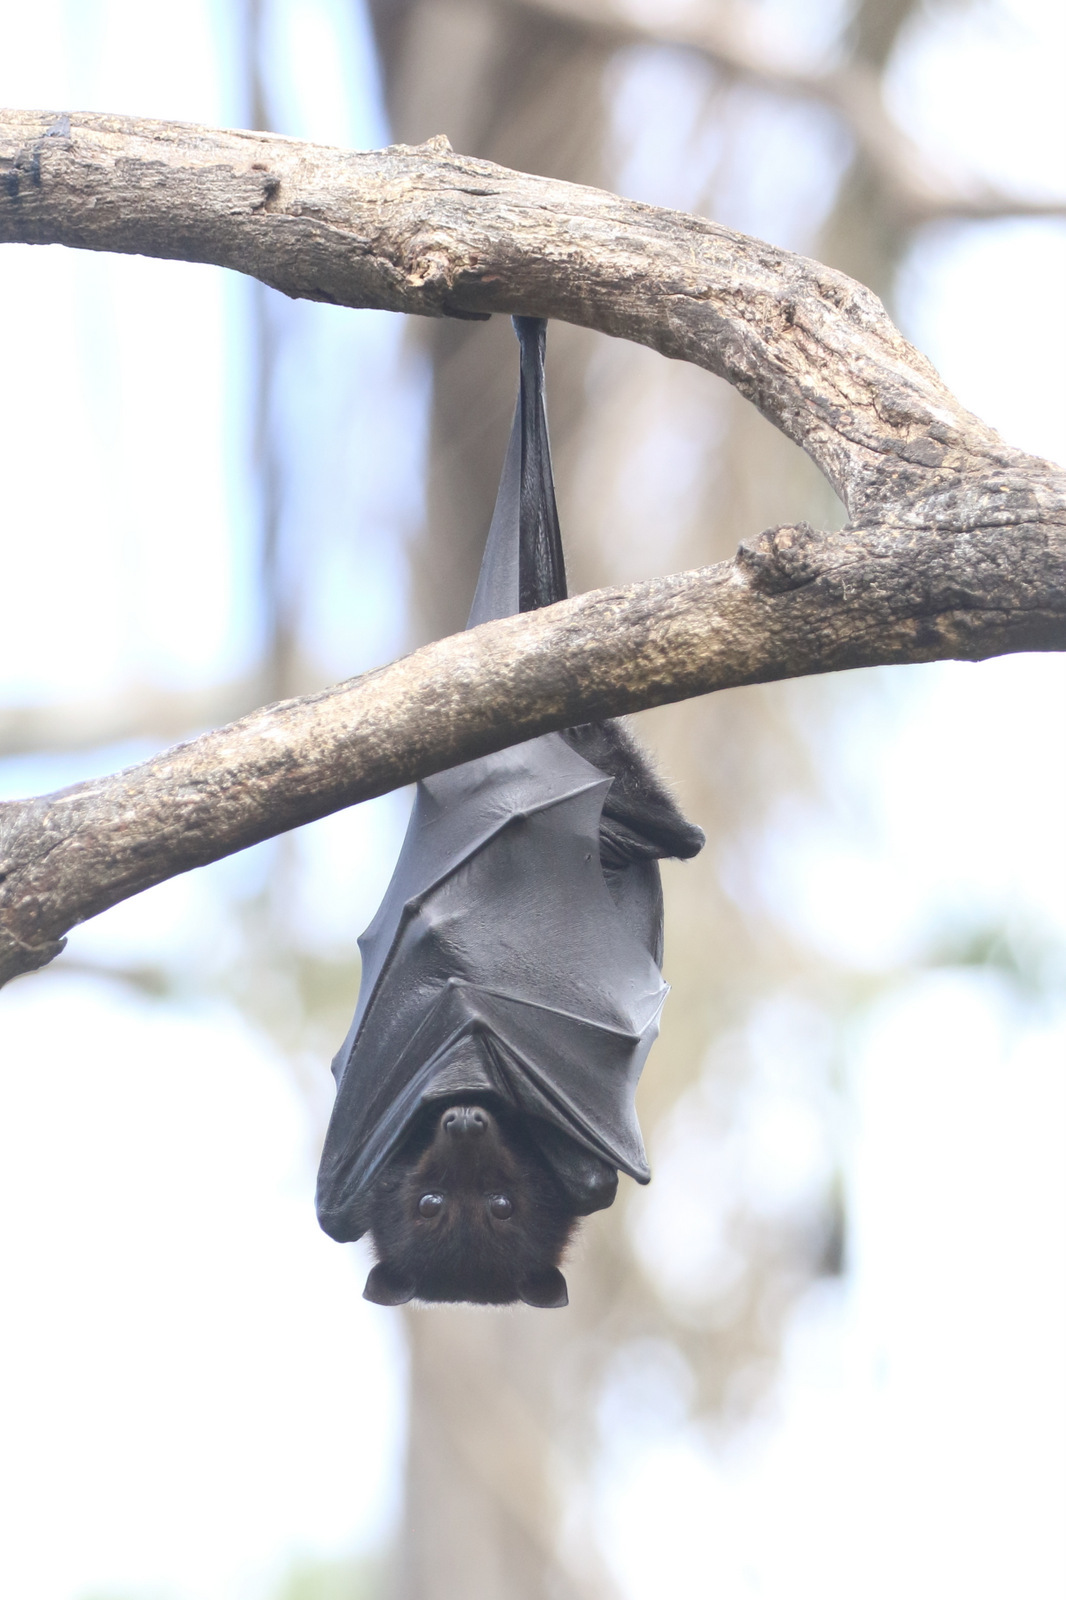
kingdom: Animalia
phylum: Chordata
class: Mammalia
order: Chiroptera
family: Pteropodidae
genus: Pteropus
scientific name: Pteropus alecto
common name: Black flying fox
